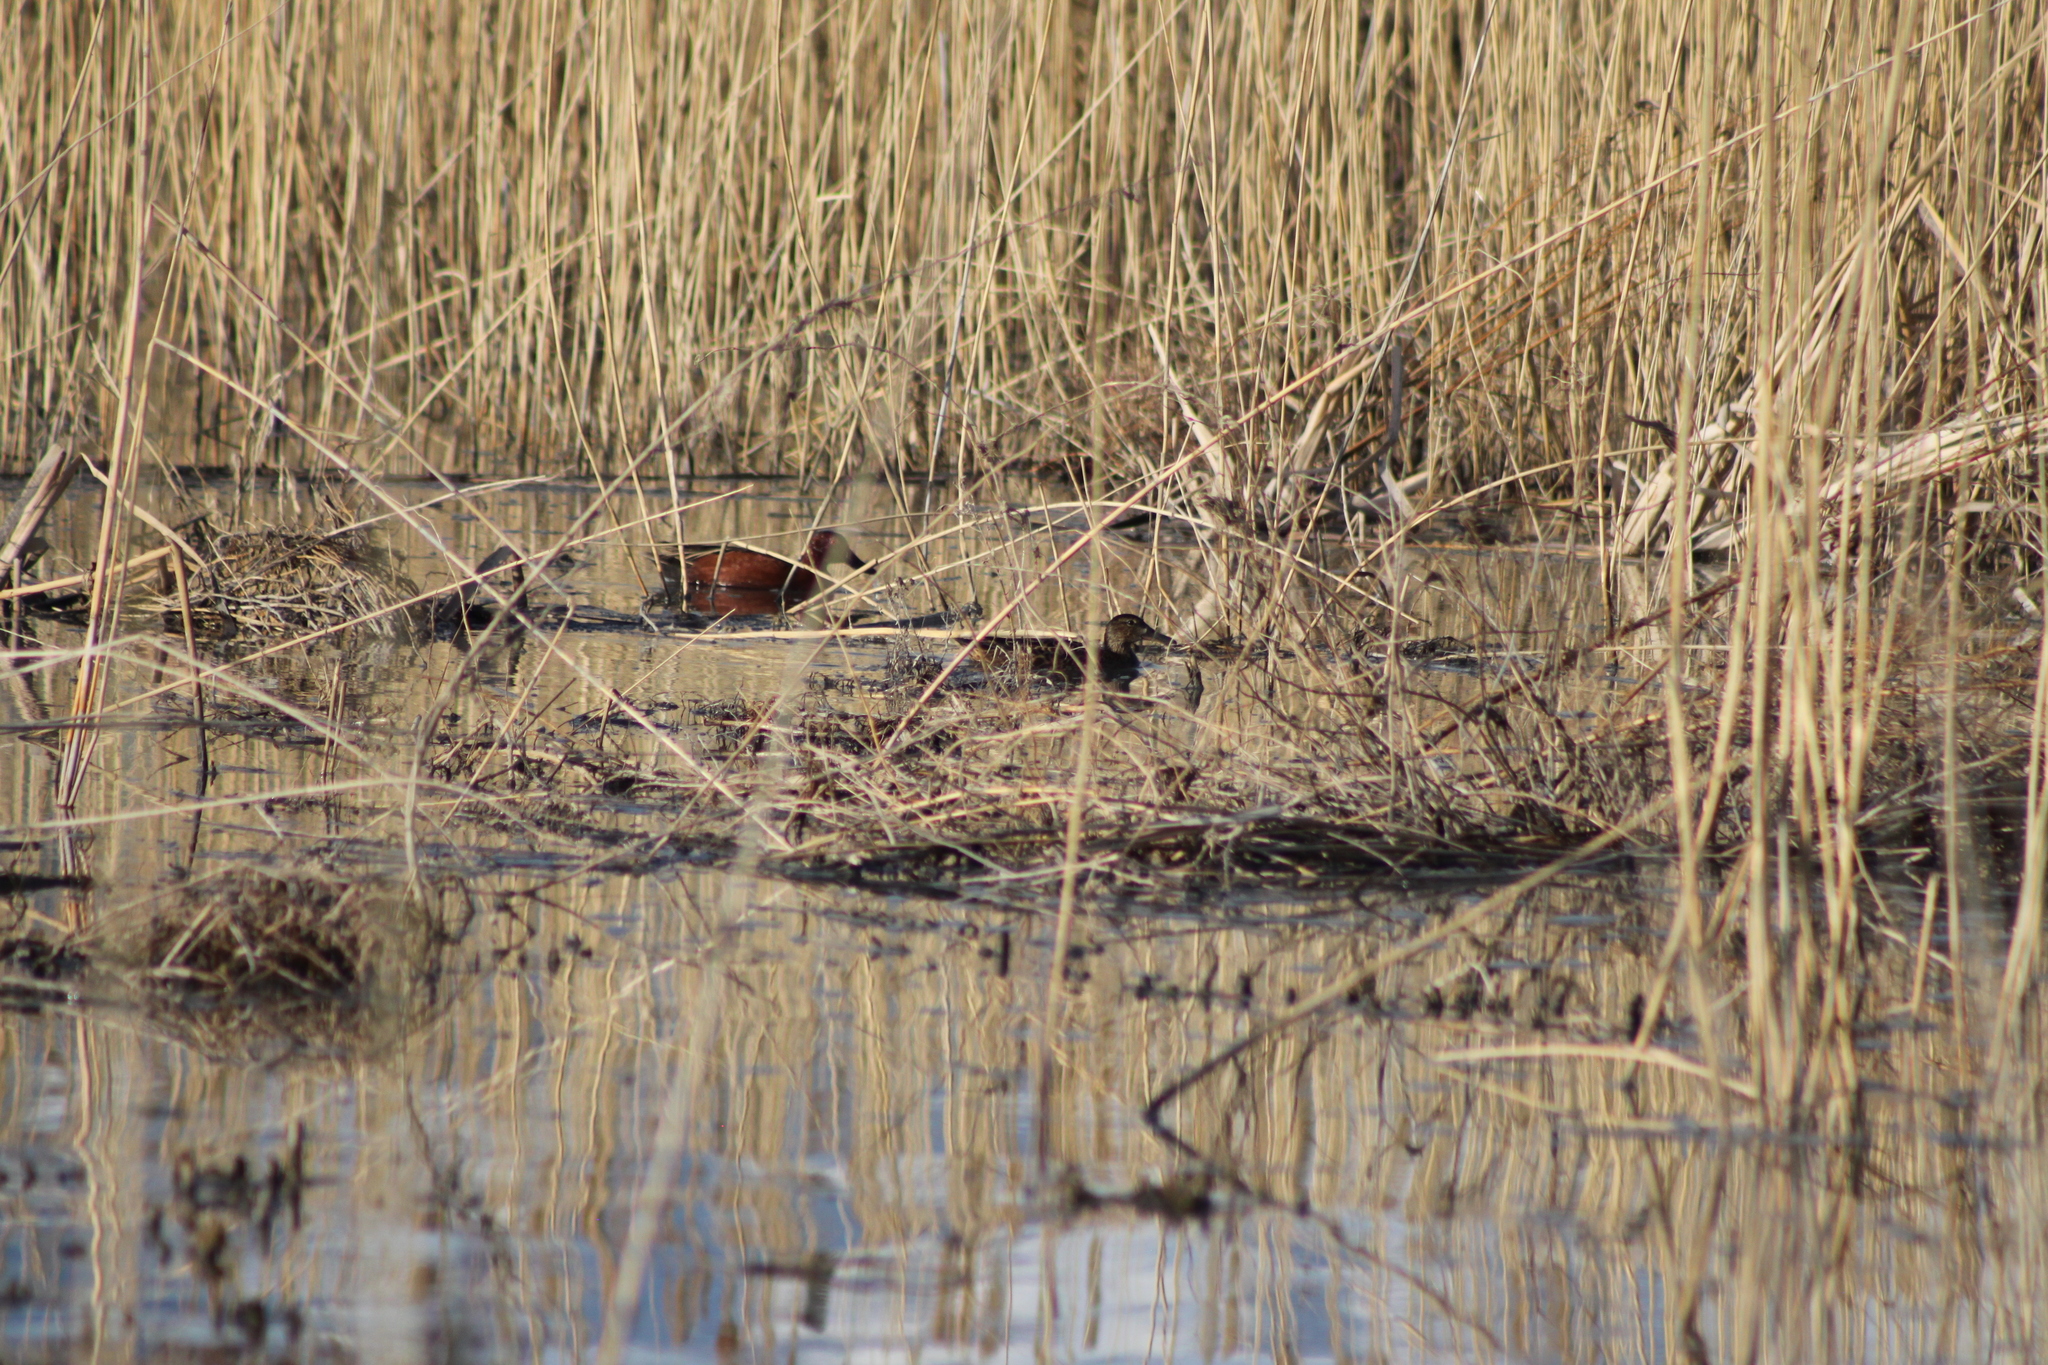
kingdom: Animalia
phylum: Chordata
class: Aves
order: Anseriformes
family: Anatidae
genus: Spatula
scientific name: Spatula cyanoptera
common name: Cinnamon teal
